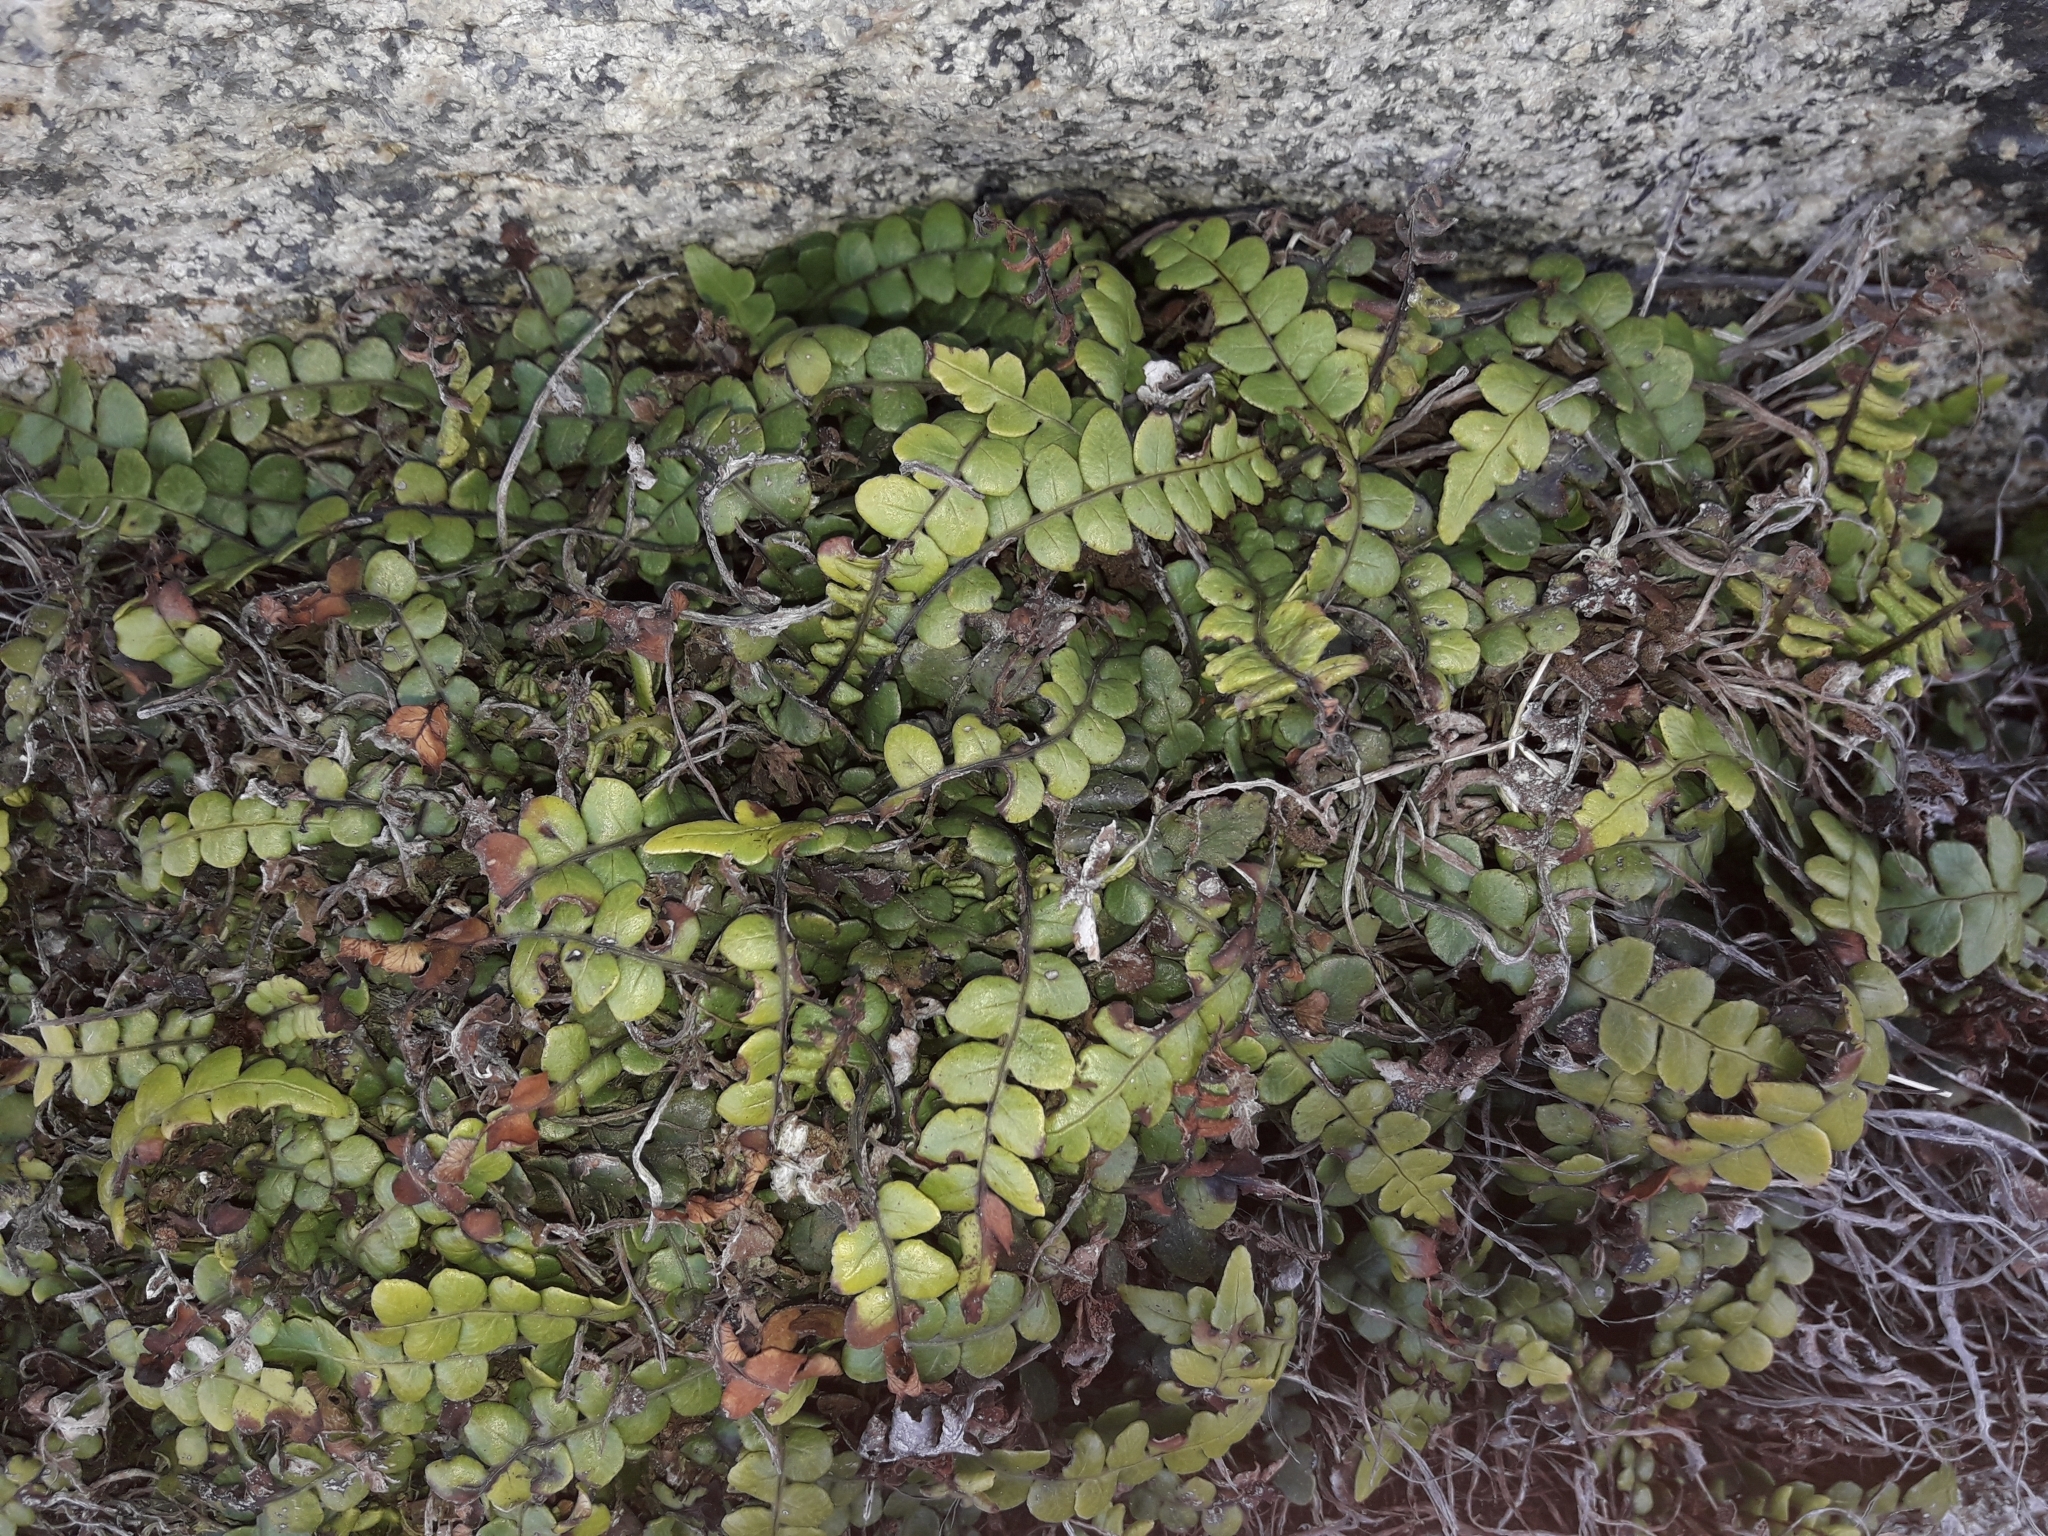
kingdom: Plantae
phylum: Tracheophyta
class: Polypodiopsida
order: Polypodiales
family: Blechnaceae
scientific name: Blechnaceae
